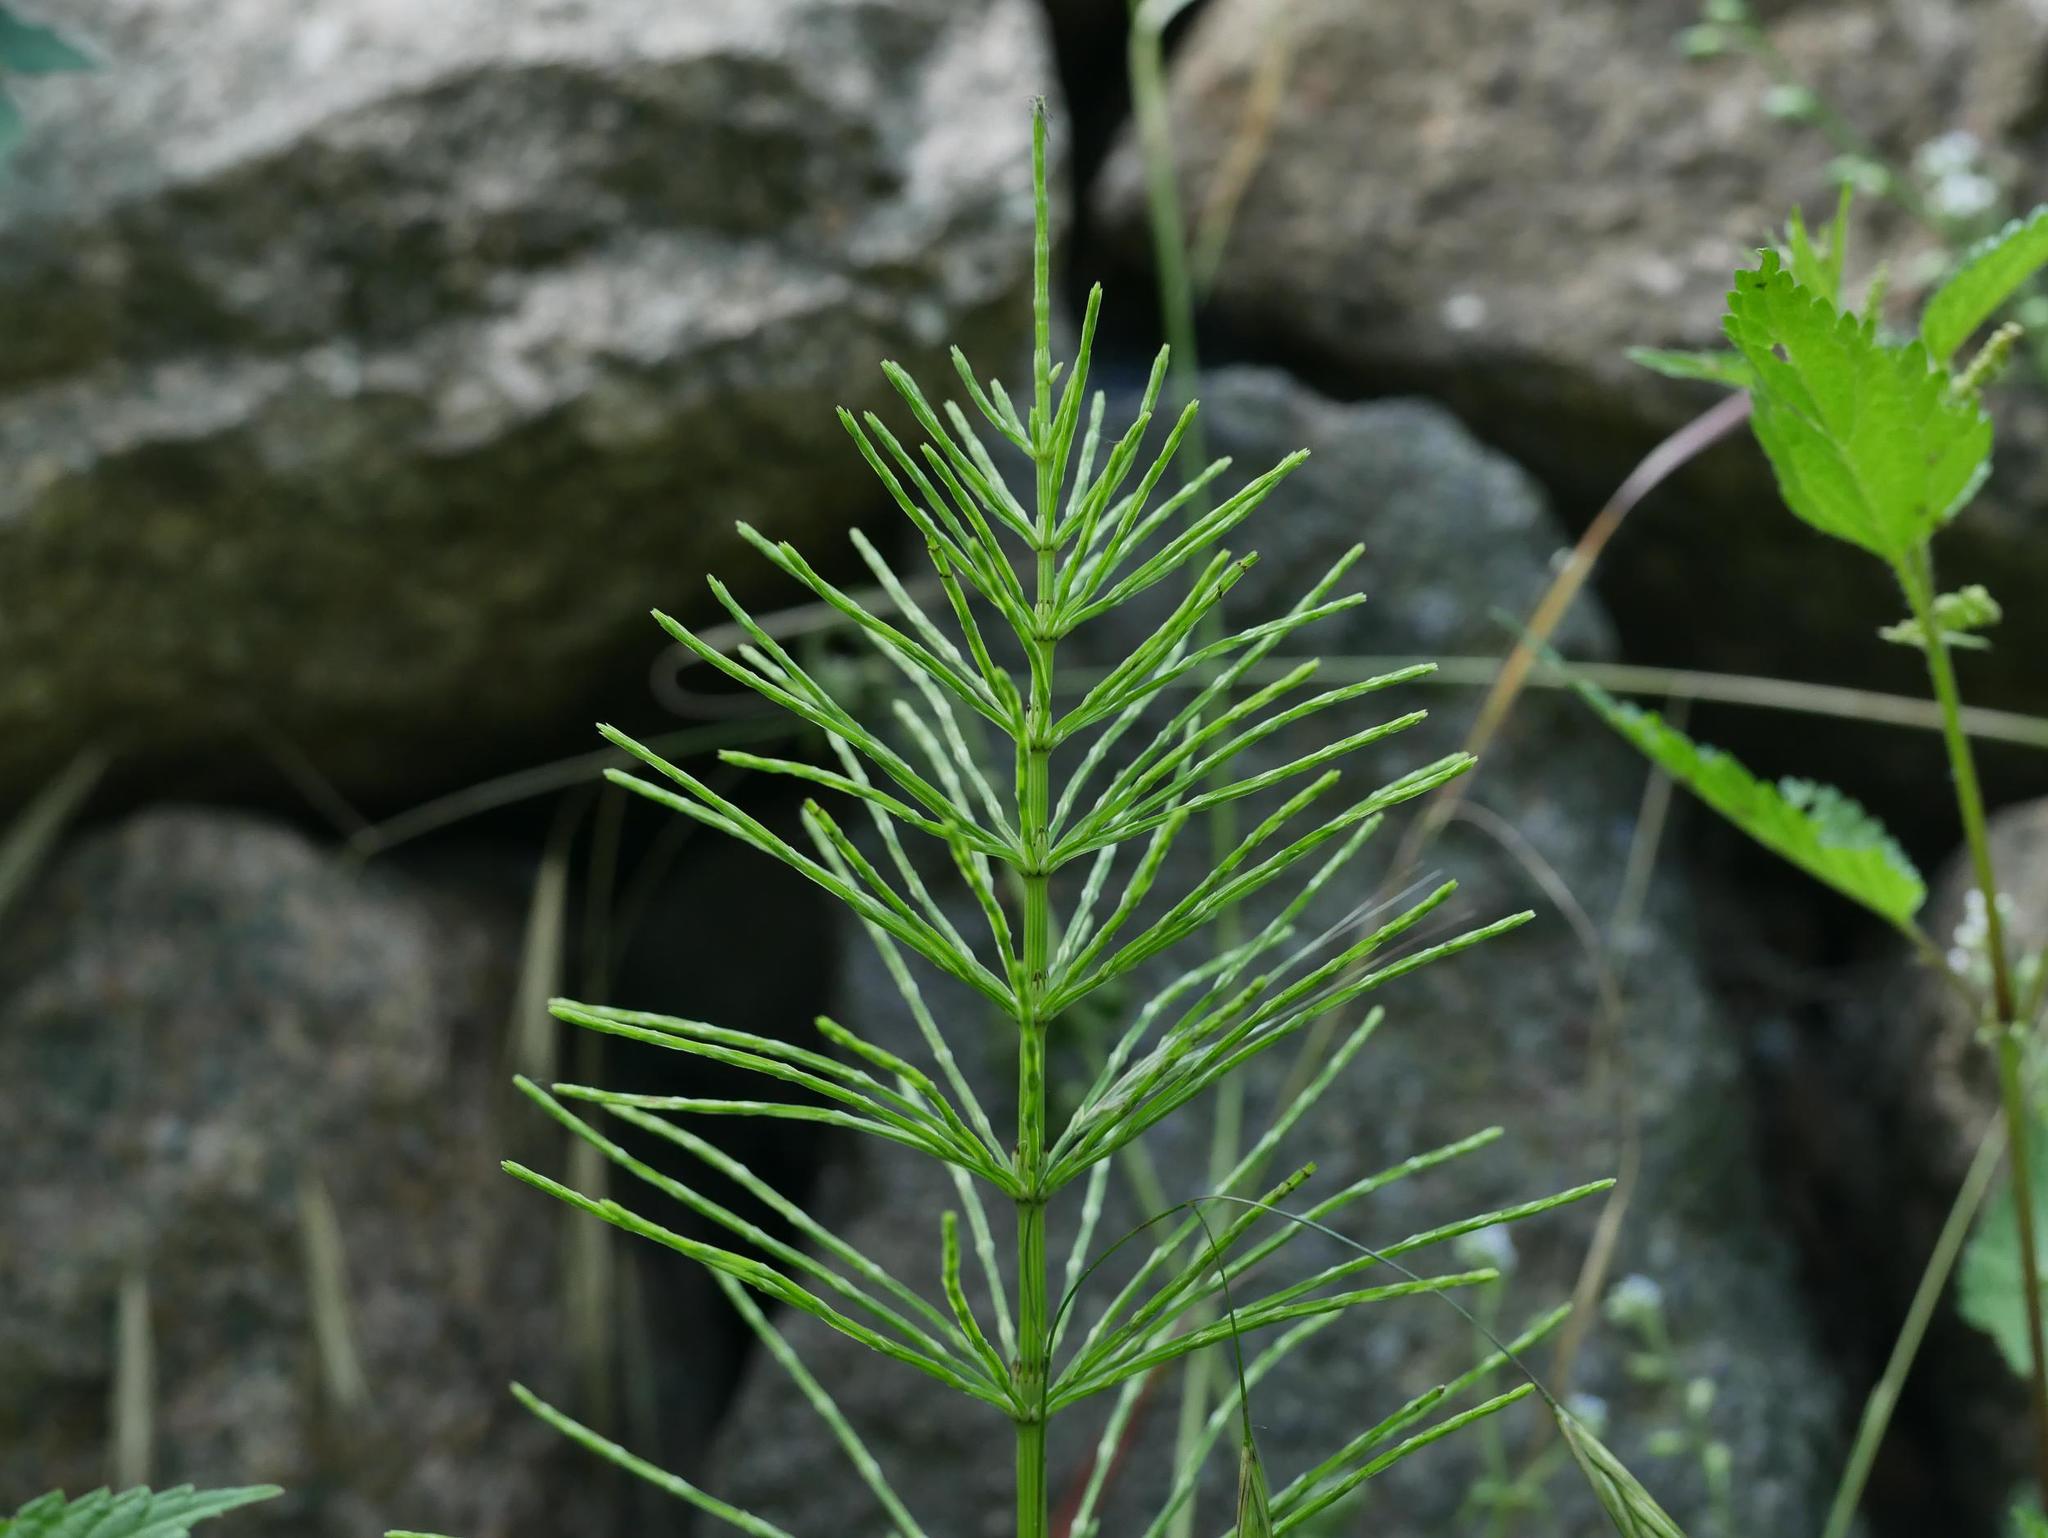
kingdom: Plantae
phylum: Tracheophyta
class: Polypodiopsida
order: Equisetales
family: Equisetaceae
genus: Equisetum
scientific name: Equisetum arvense
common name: Field horsetail
